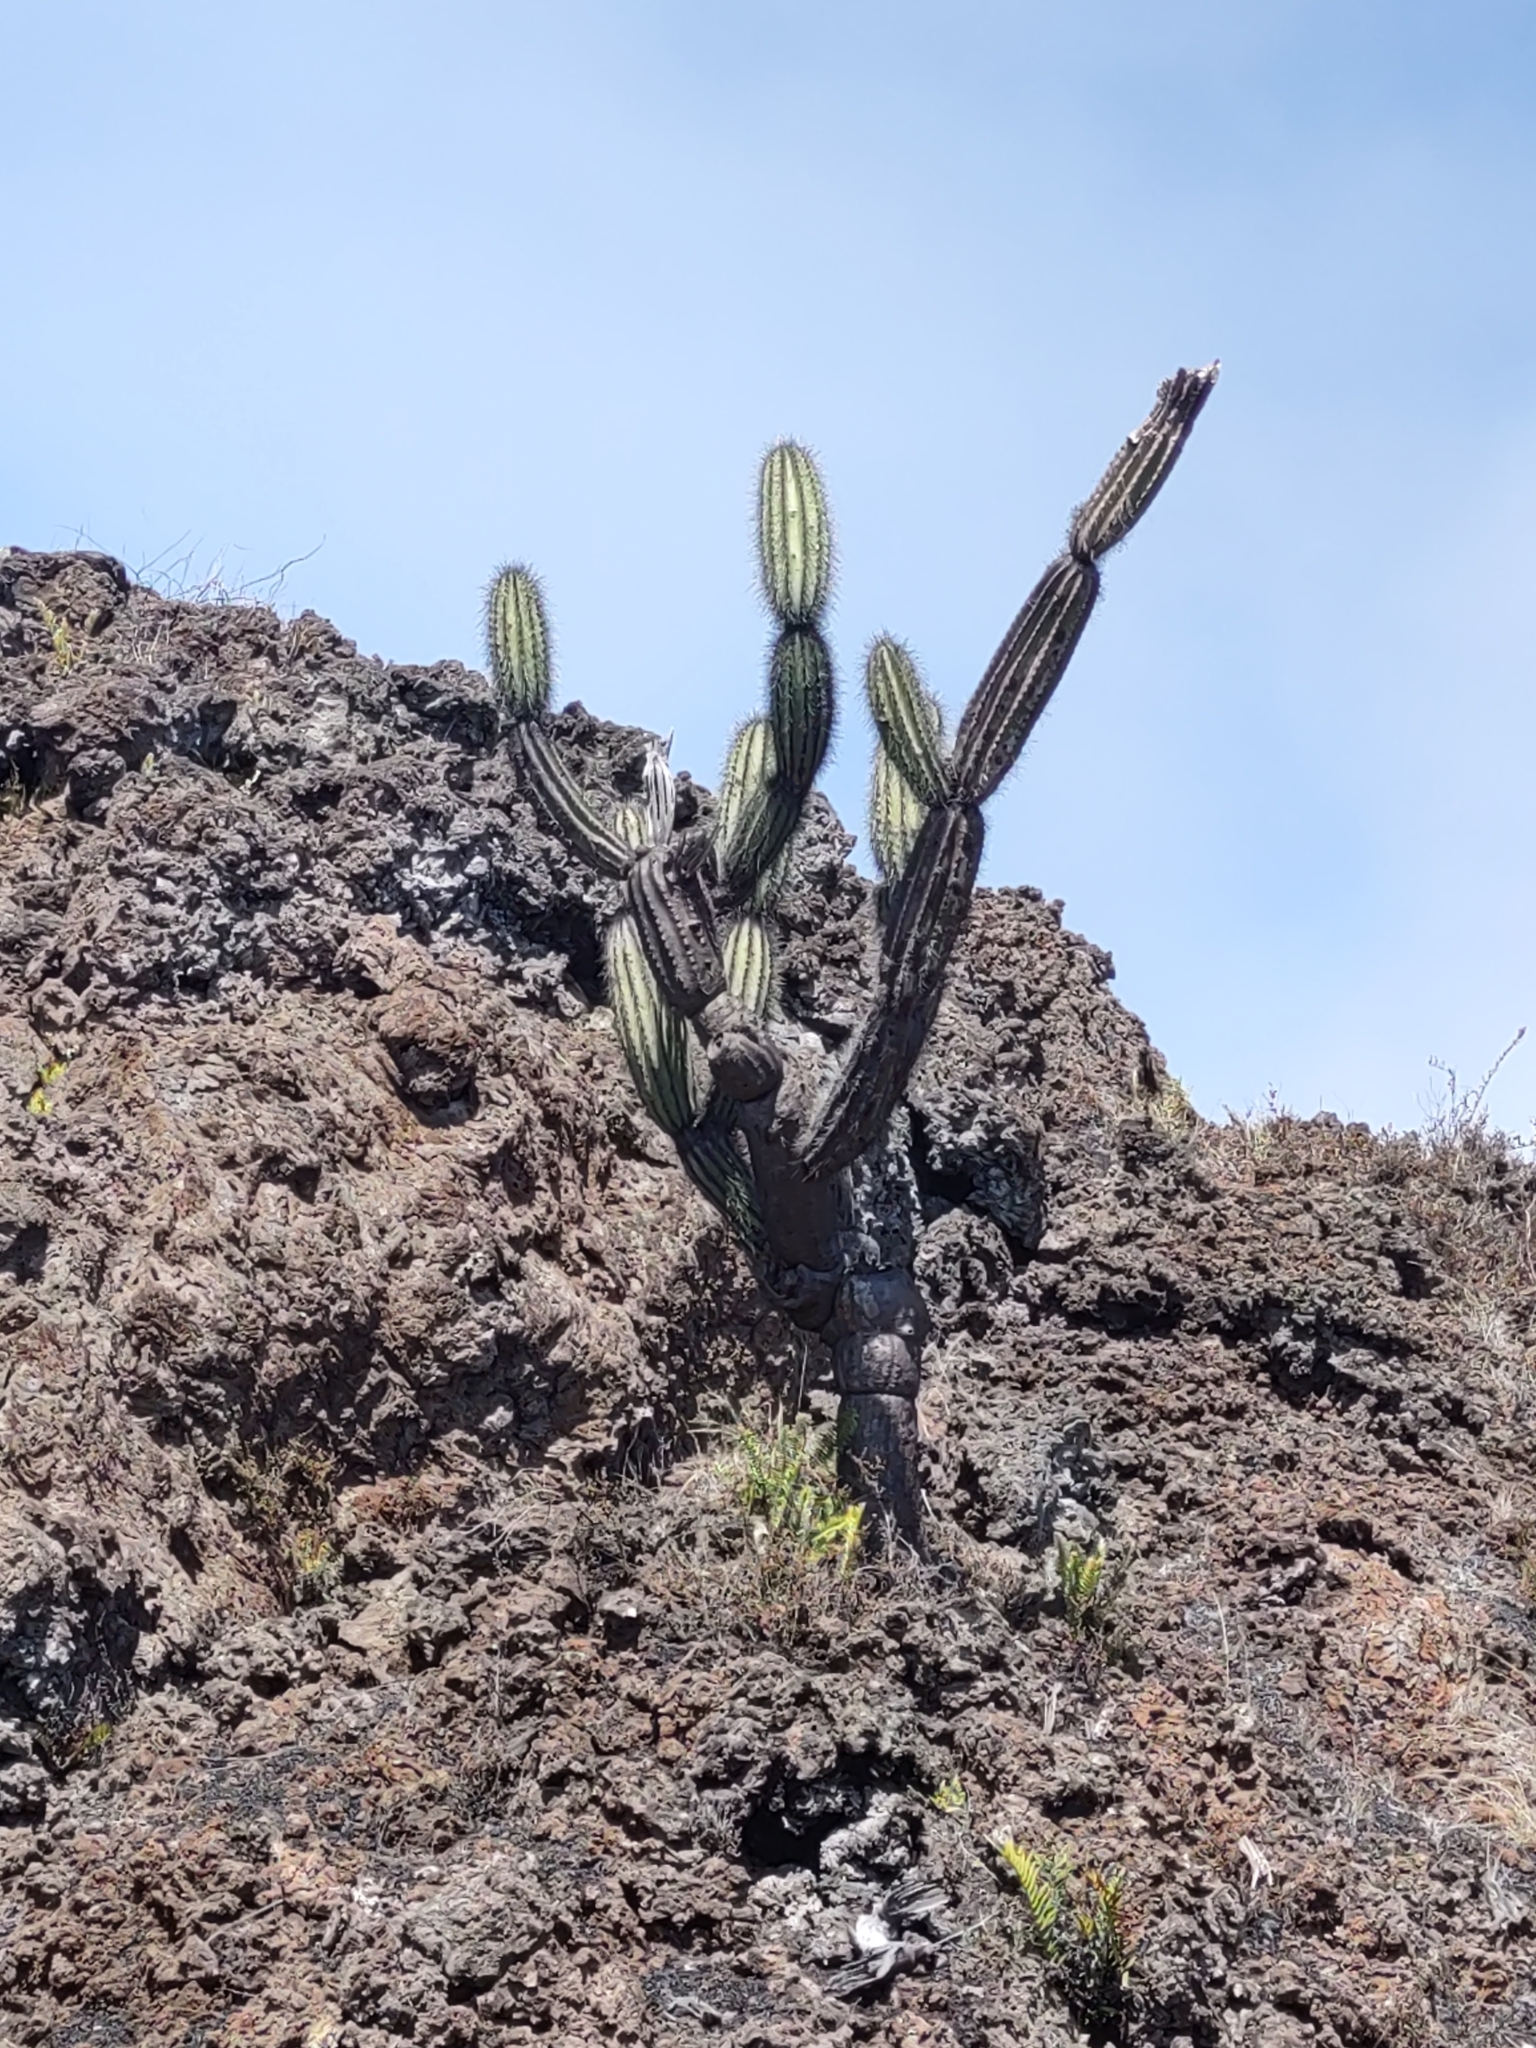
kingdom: Plantae
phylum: Tracheophyta
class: Magnoliopsida
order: Caryophyllales
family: Cactaceae
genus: Jasminocereus
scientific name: Jasminocereus thouarsii
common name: Candelabra cactus
